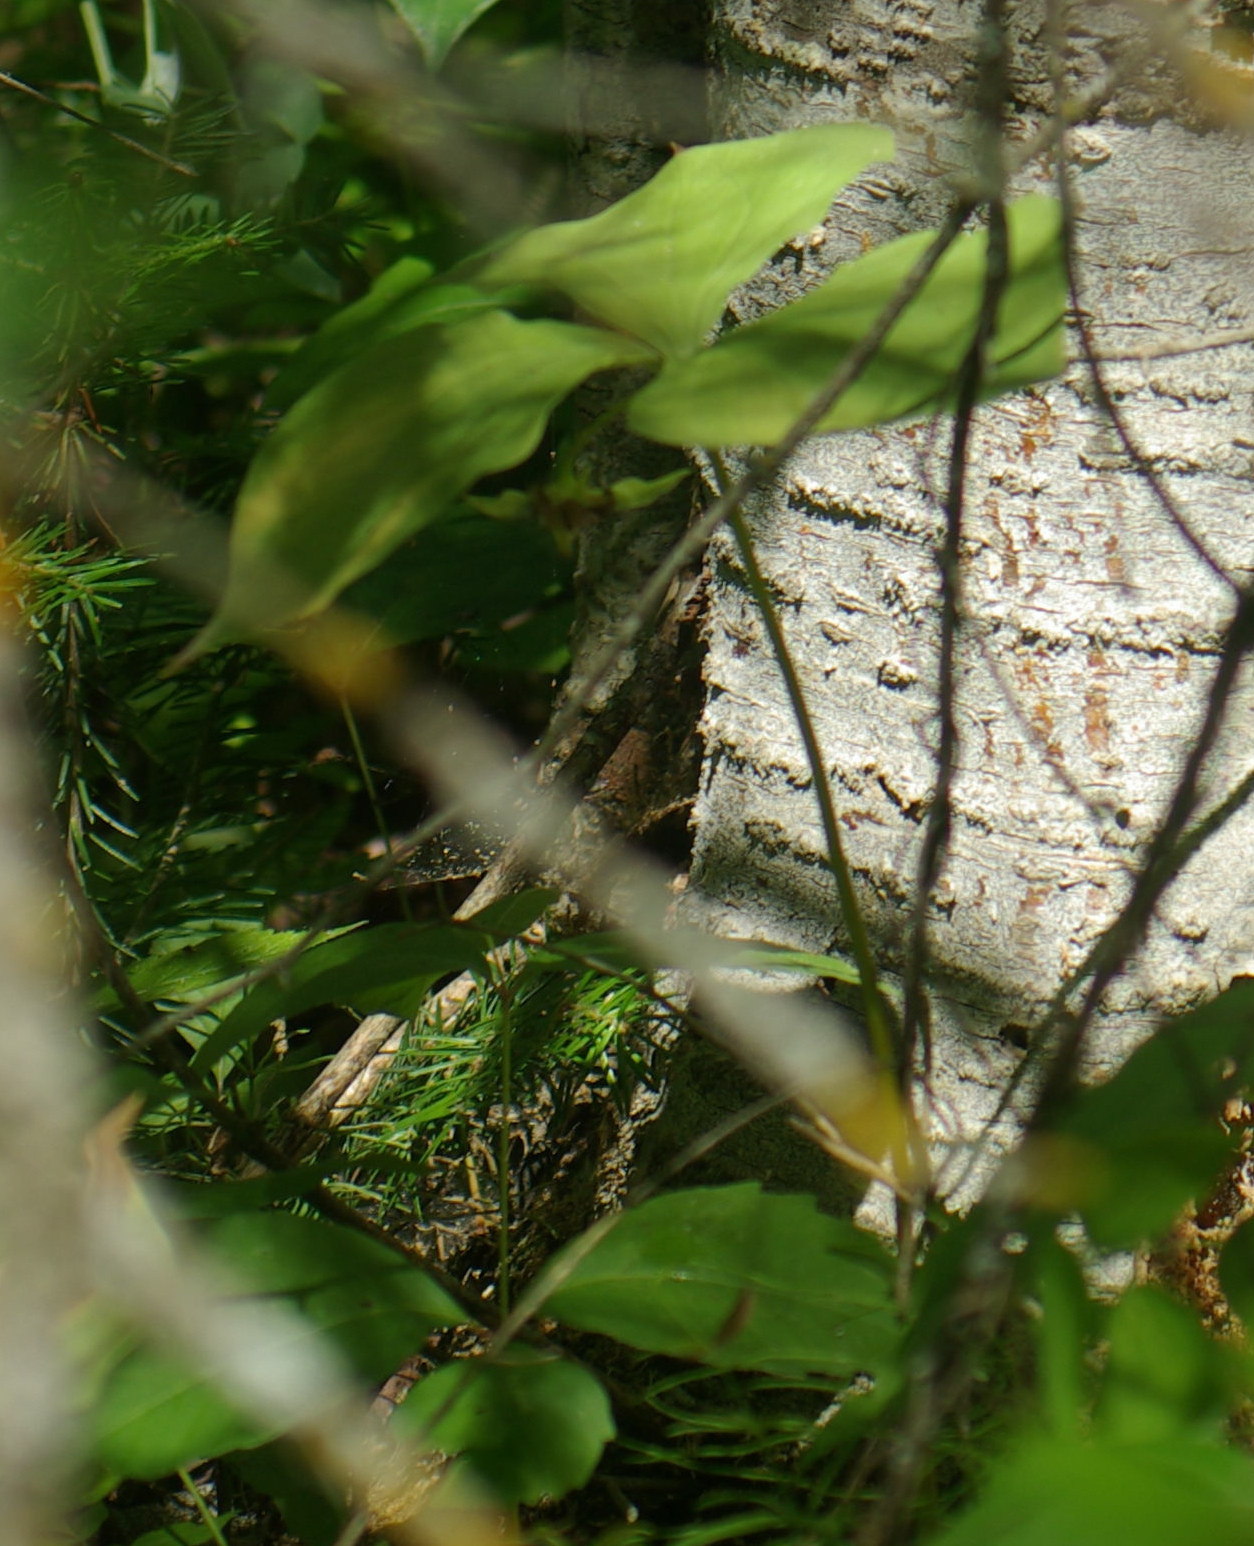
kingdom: Plantae
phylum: Tracheophyta
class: Liliopsida
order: Liliales
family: Melanthiaceae
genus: Trillium
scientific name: Trillium cernuum
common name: Nodding trillium
